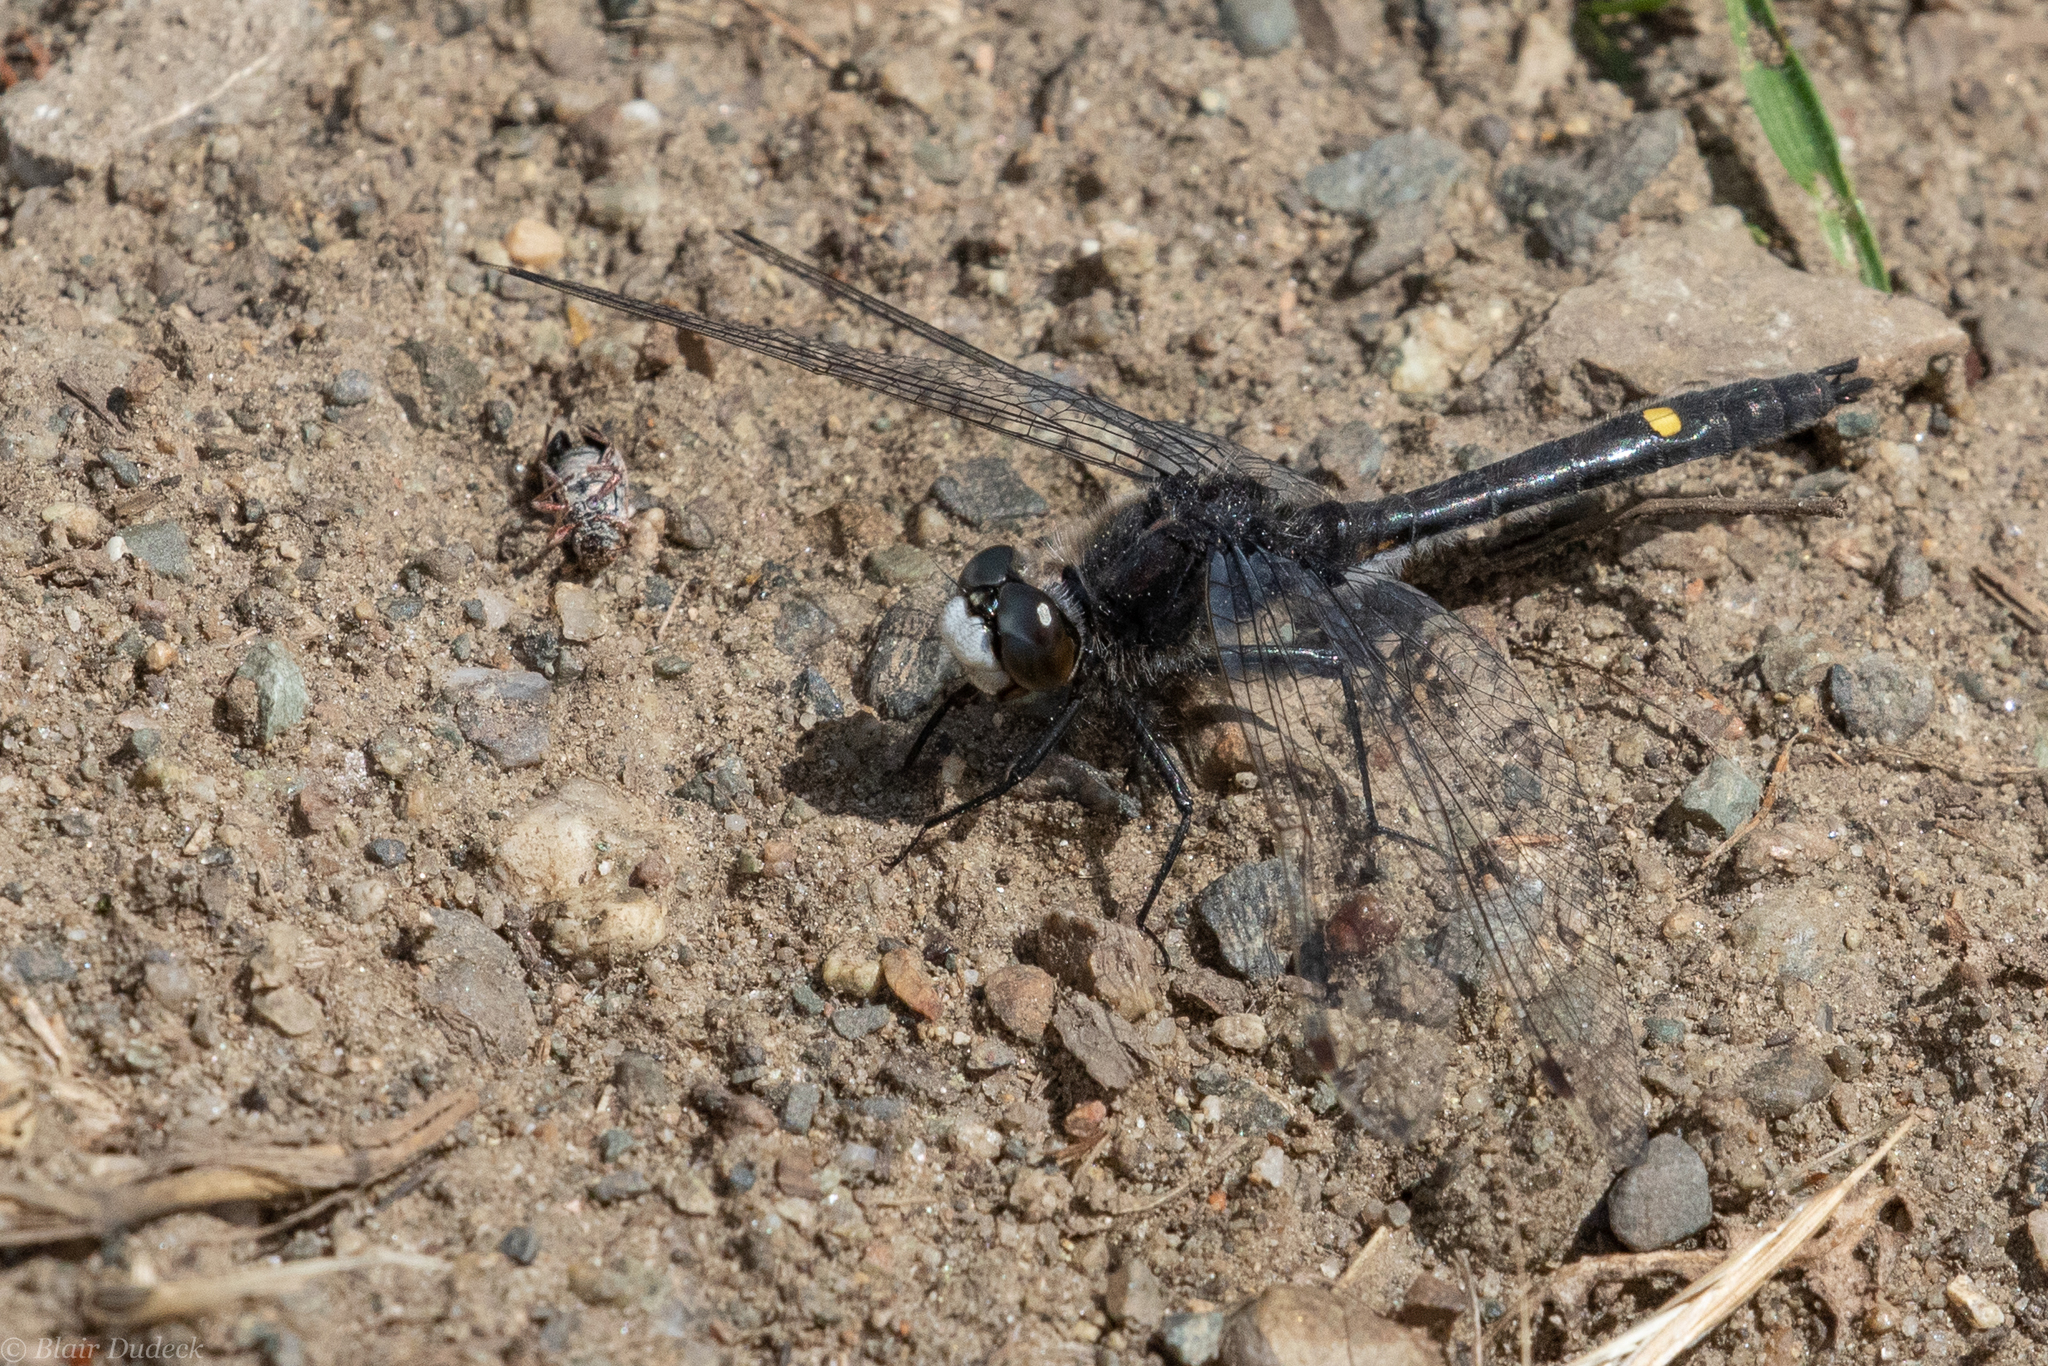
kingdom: Animalia
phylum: Arthropoda
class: Insecta
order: Odonata
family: Libellulidae
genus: Leucorrhinia
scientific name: Leucorrhinia intacta
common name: Dot-tailed whiteface
